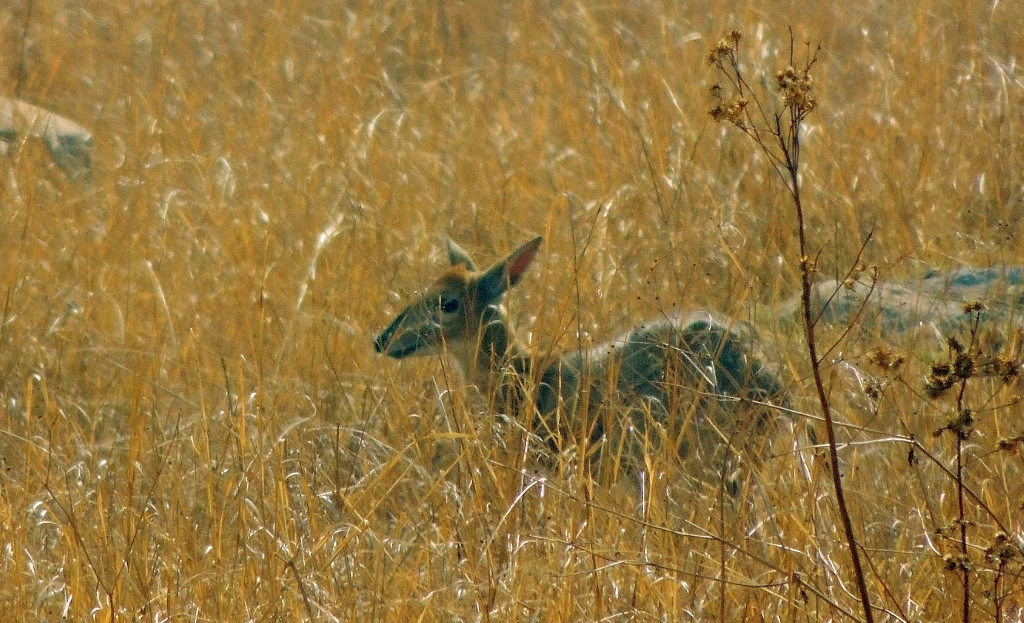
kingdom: Animalia
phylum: Chordata
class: Mammalia
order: Artiodactyla
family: Bovidae
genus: Sylvicapra
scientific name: Sylvicapra grimmia
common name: Bush duiker
